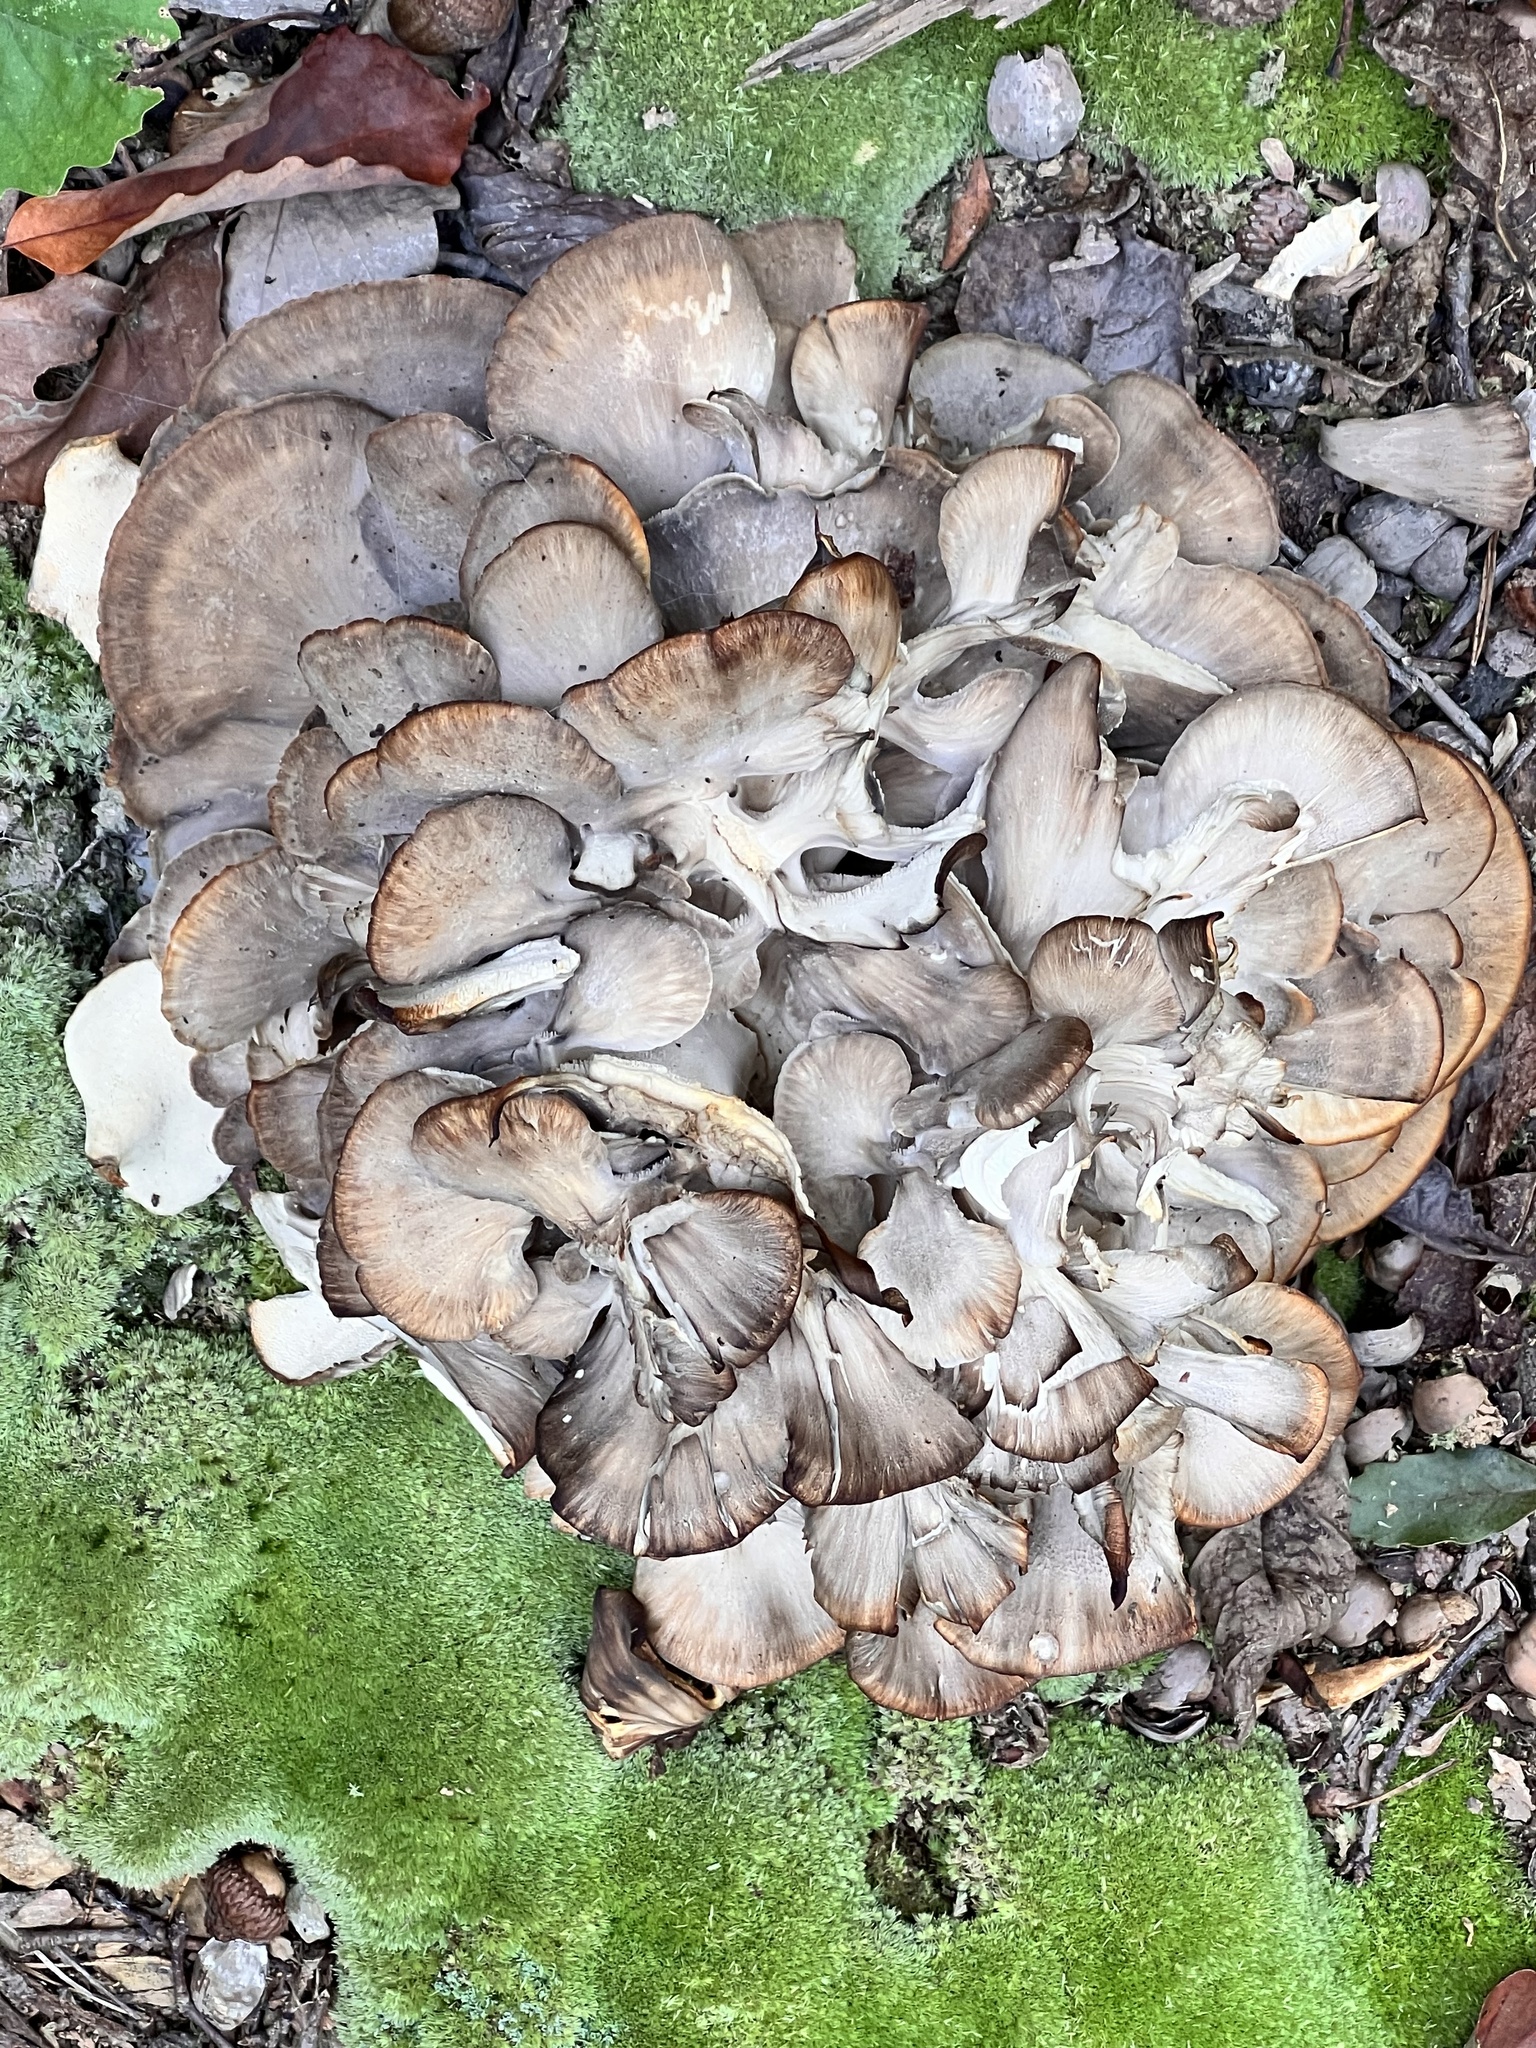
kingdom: Fungi
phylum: Basidiomycota
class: Agaricomycetes
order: Polyporales
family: Grifolaceae
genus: Grifola
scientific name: Grifola frondosa
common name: Hen of the woods
